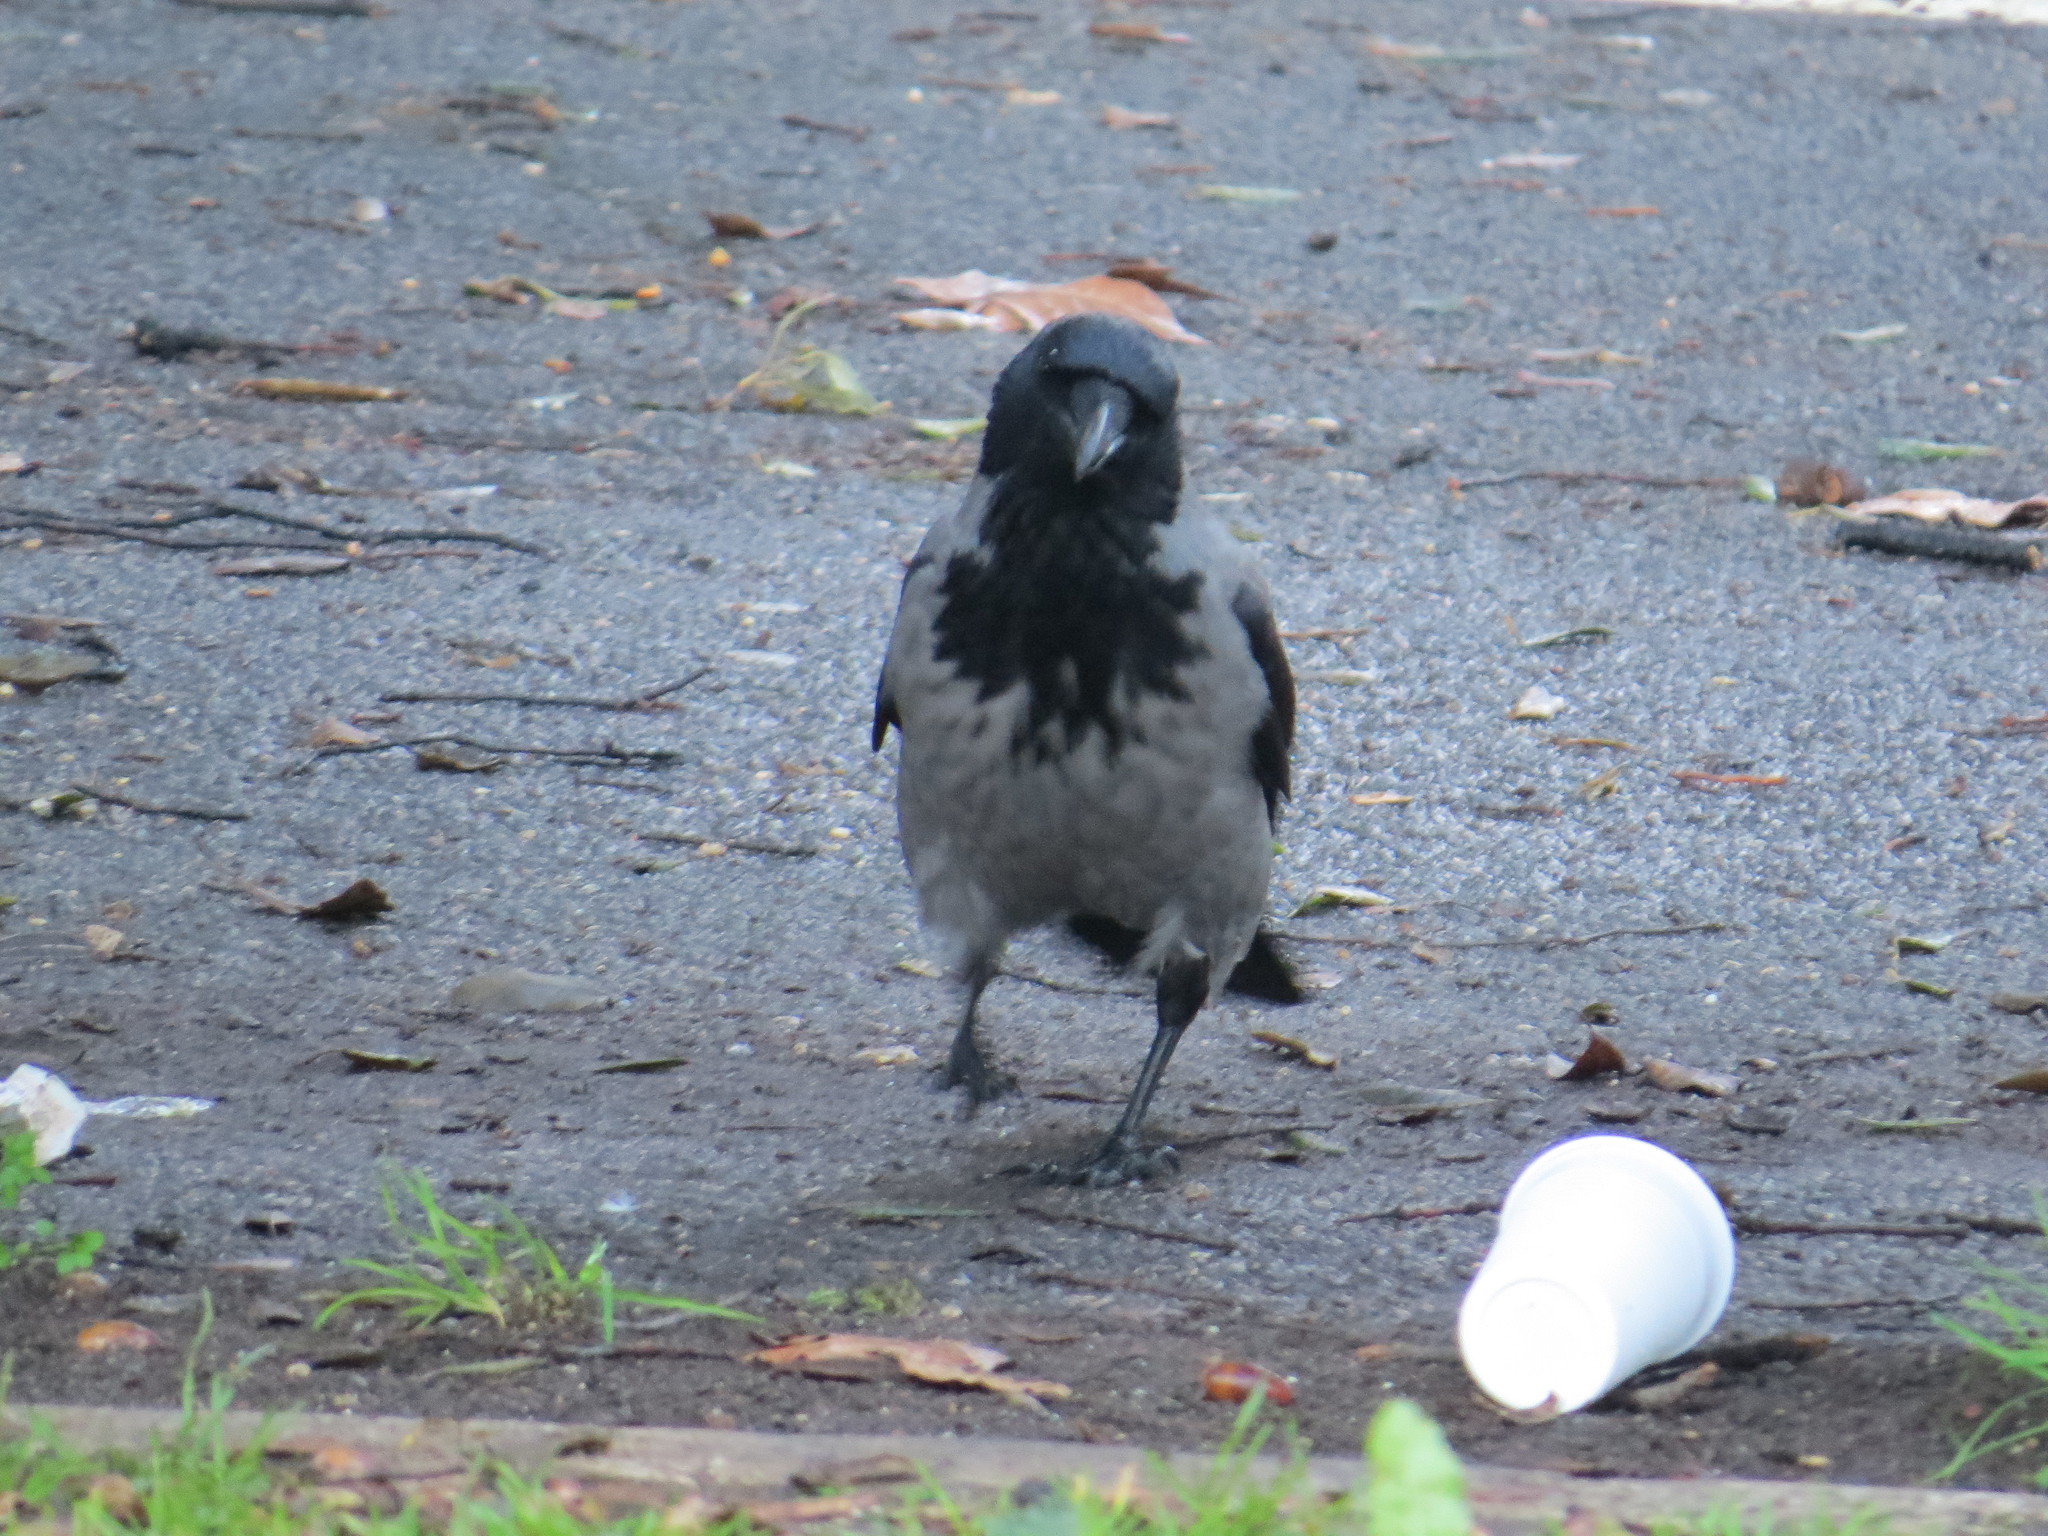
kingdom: Animalia
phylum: Chordata
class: Aves
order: Passeriformes
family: Corvidae
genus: Corvus
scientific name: Corvus cornix
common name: Hooded crow
